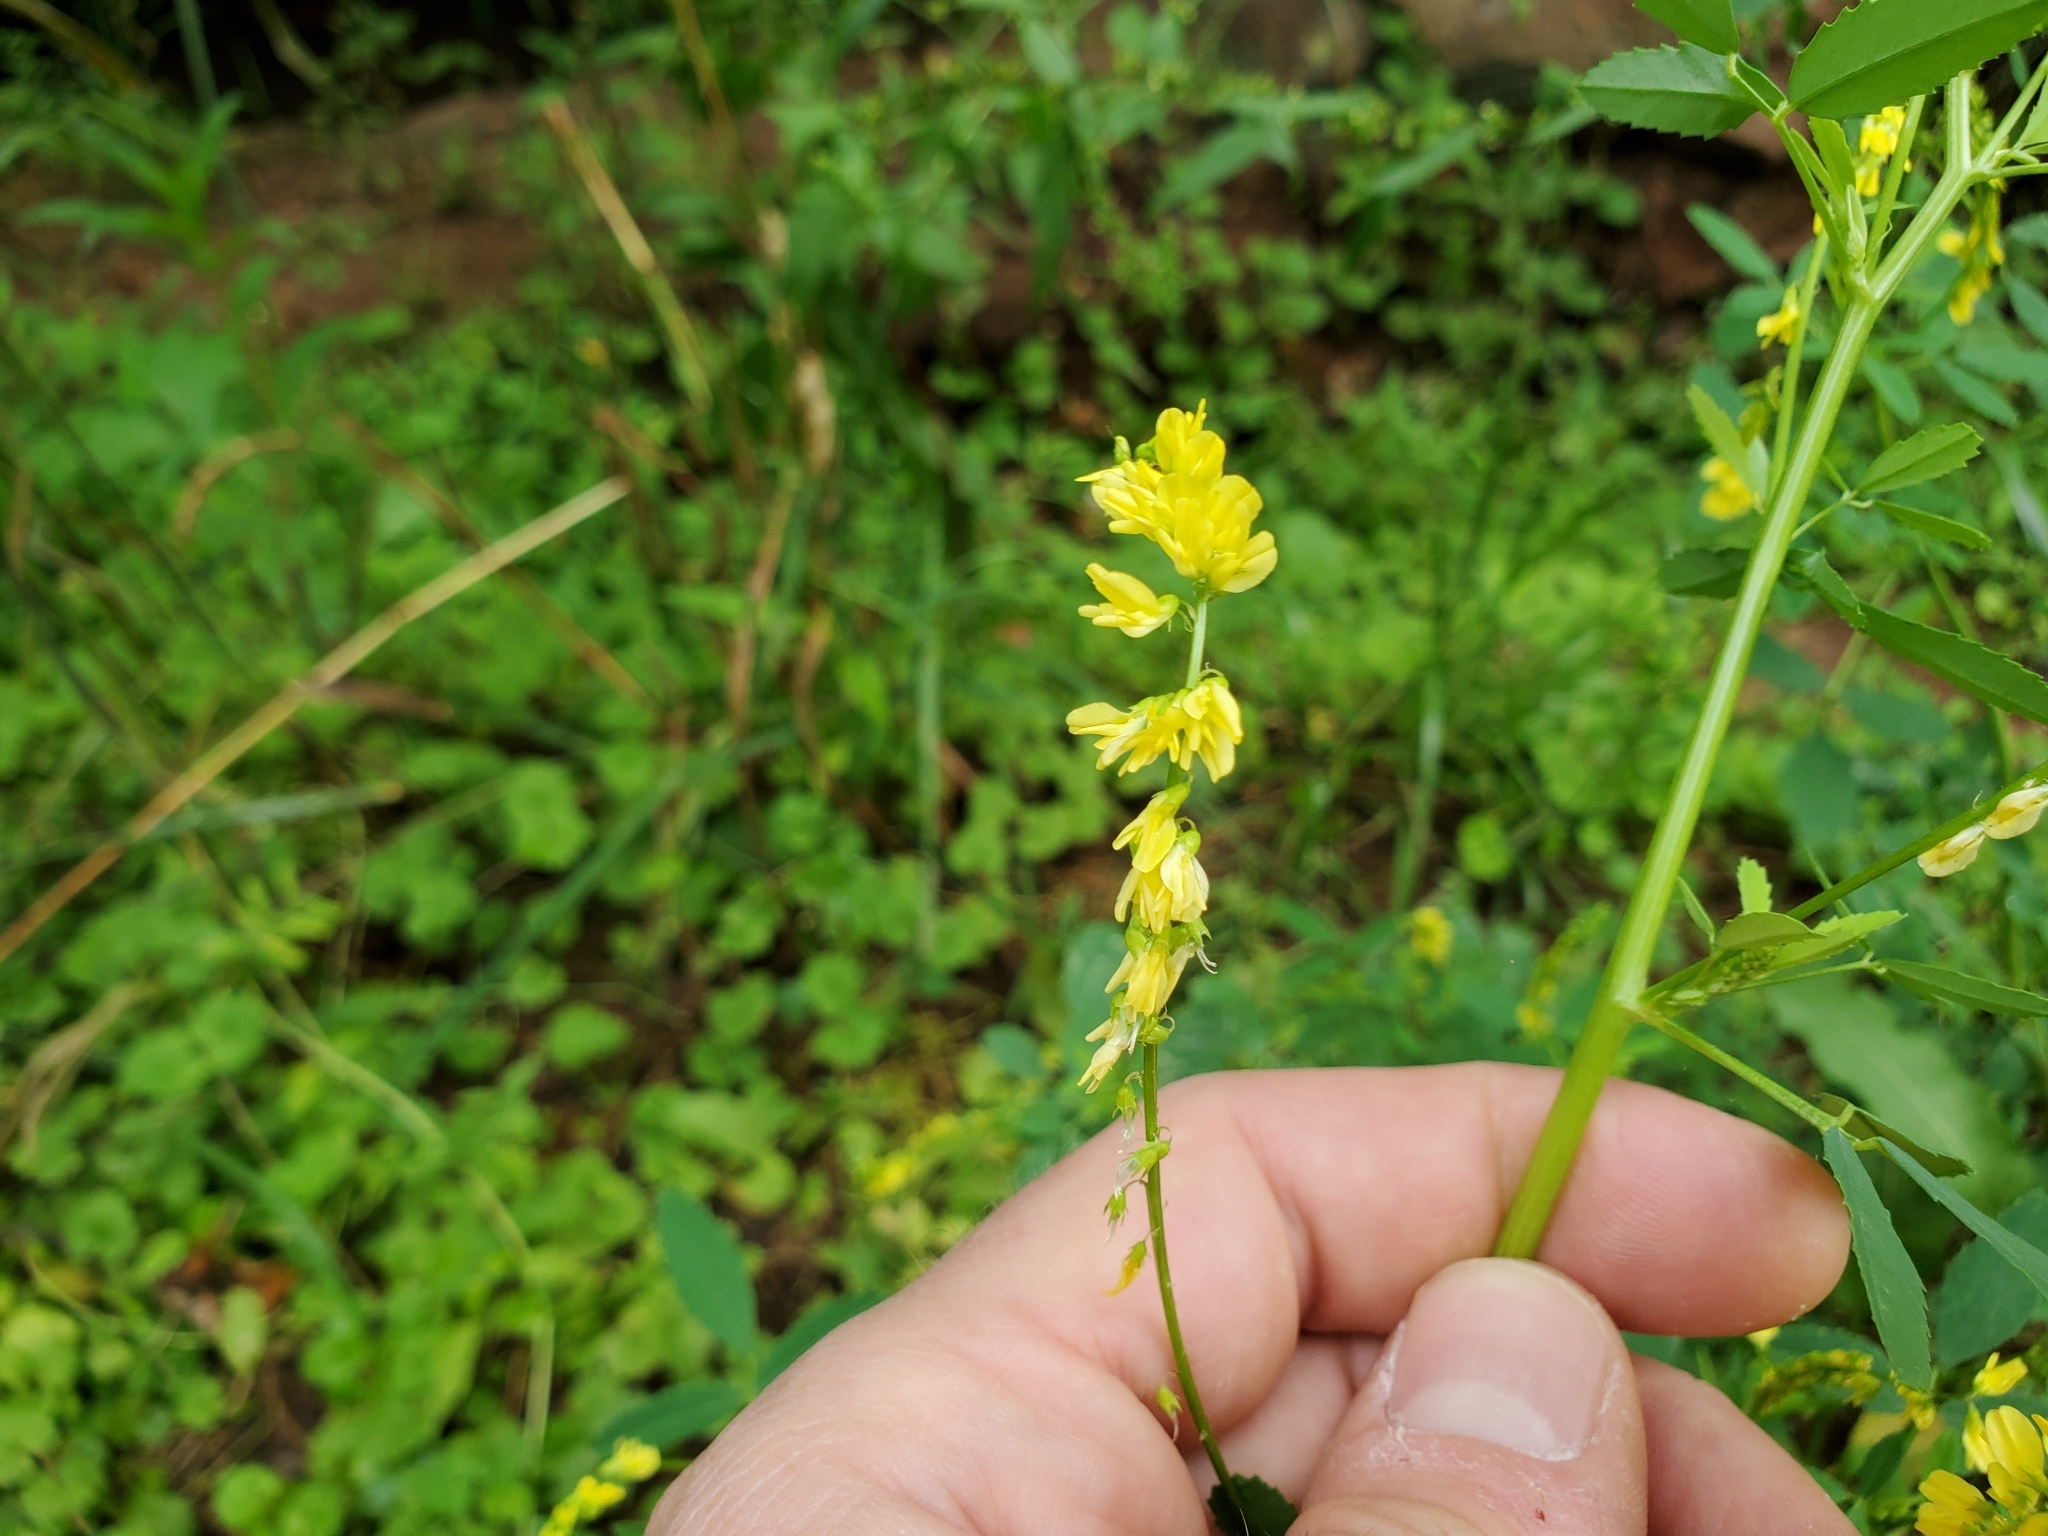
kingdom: Plantae
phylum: Tracheophyta
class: Magnoliopsida
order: Fabales
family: Fabaceae
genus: Melilotus
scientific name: Melilotus officinalis
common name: Sweetclover
